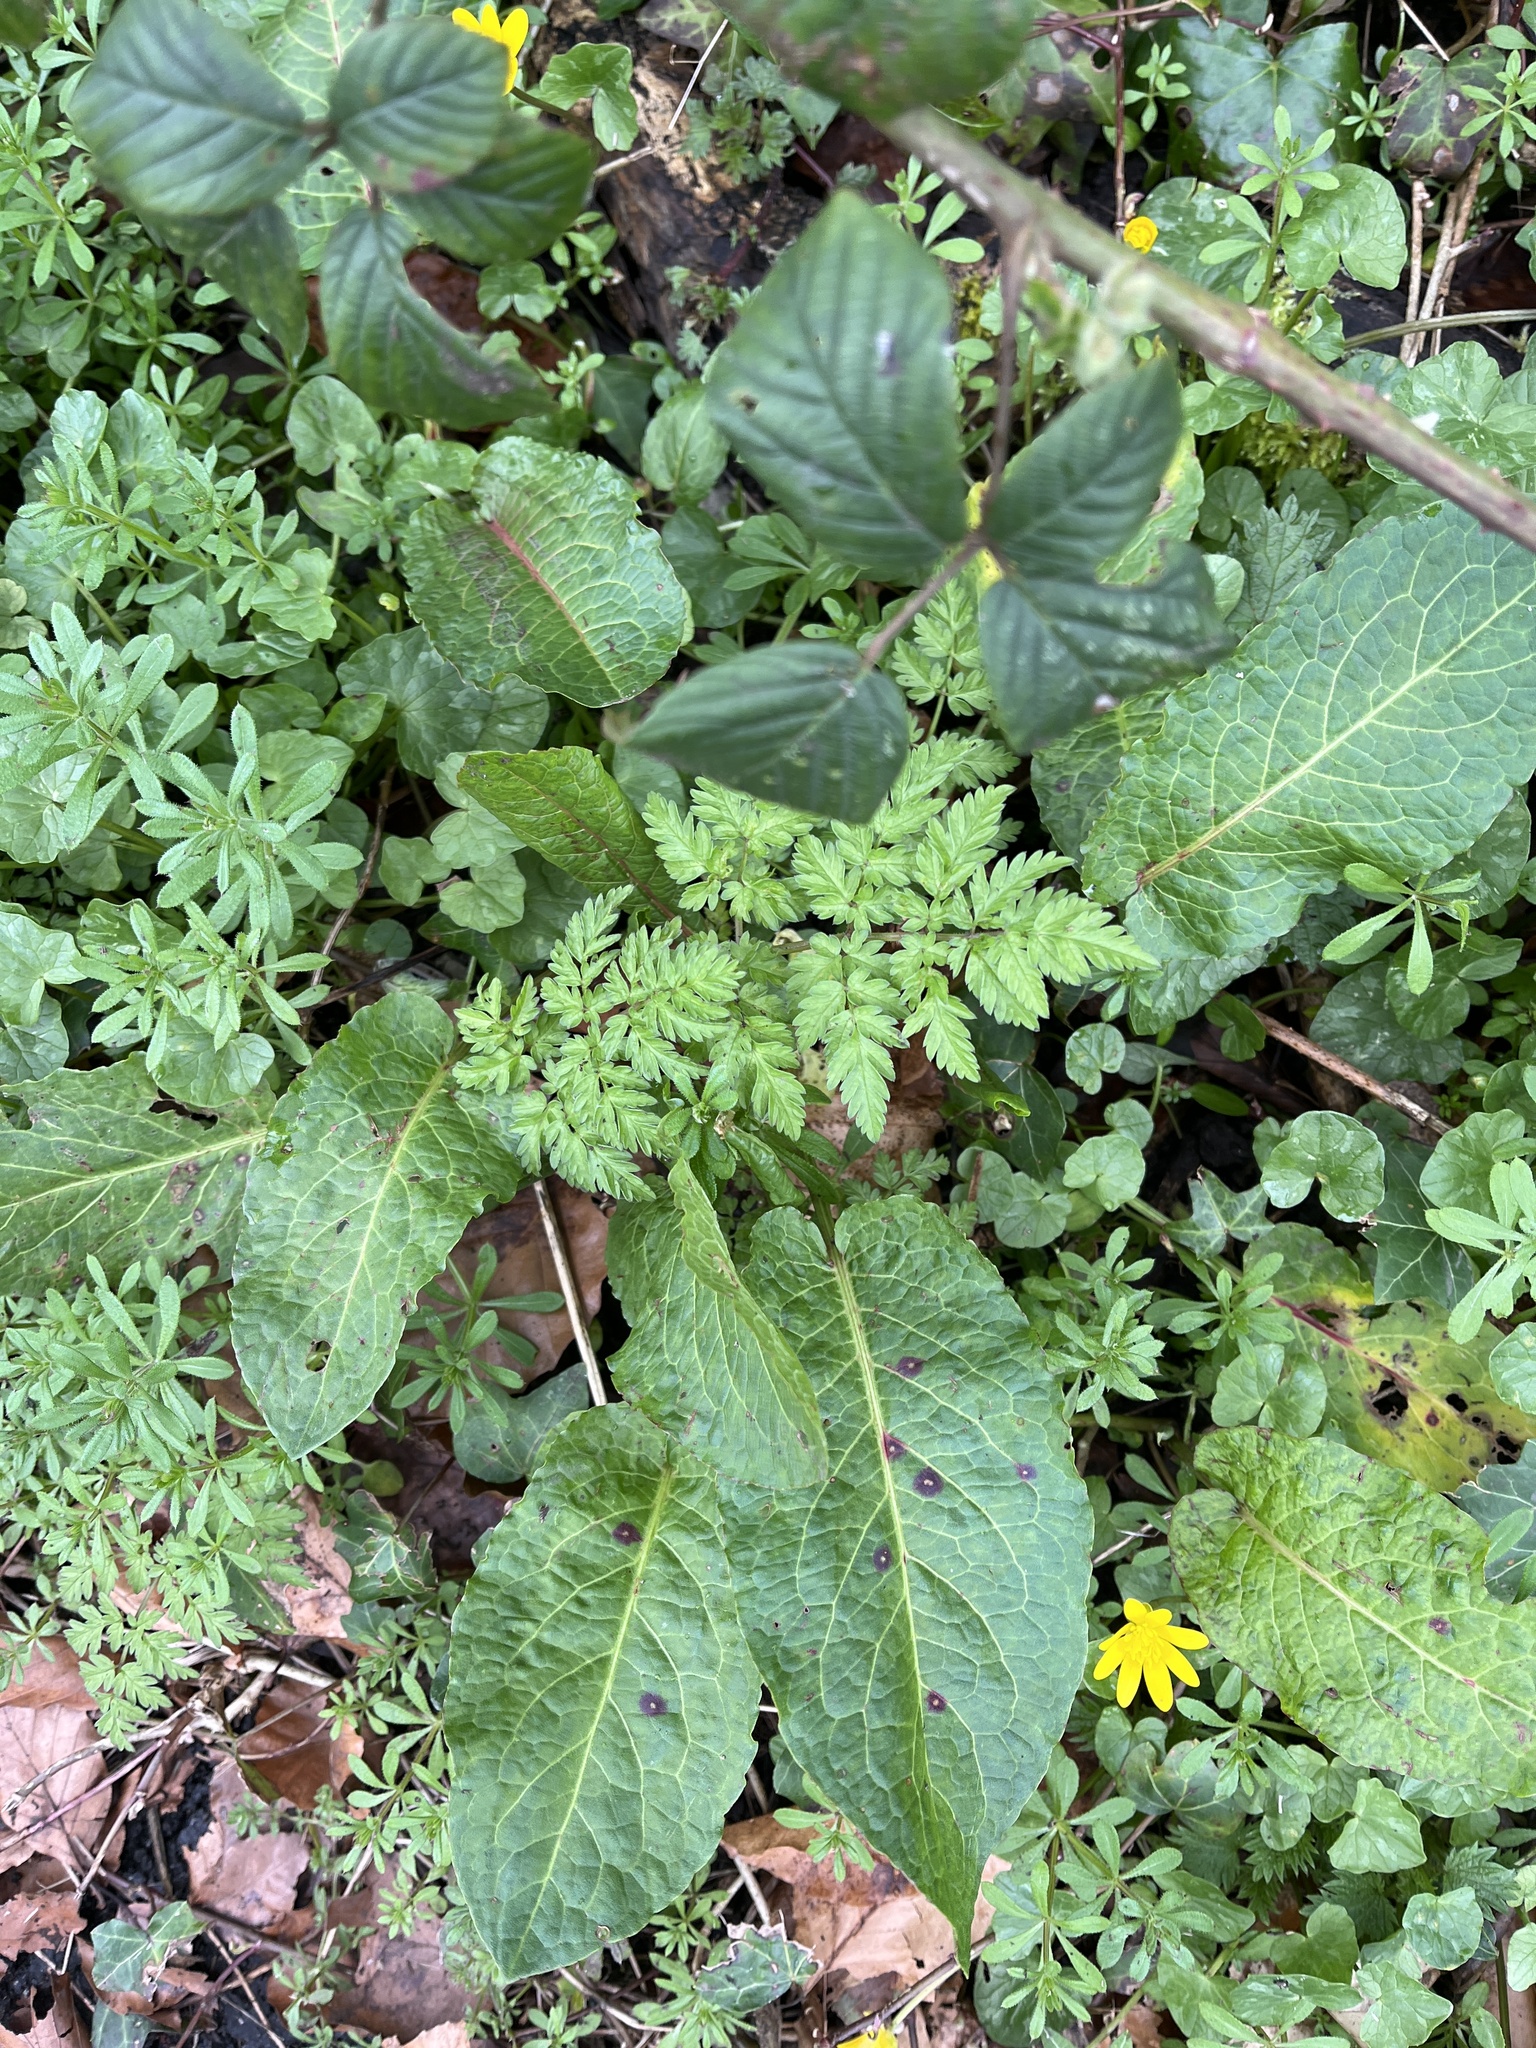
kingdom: Plantae
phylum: Tracheophyta
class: Magnoliopsida
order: Caryophyllales
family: Polygonaceae
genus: Rumex
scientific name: Rumex obtusifolius
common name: Bitter dock
